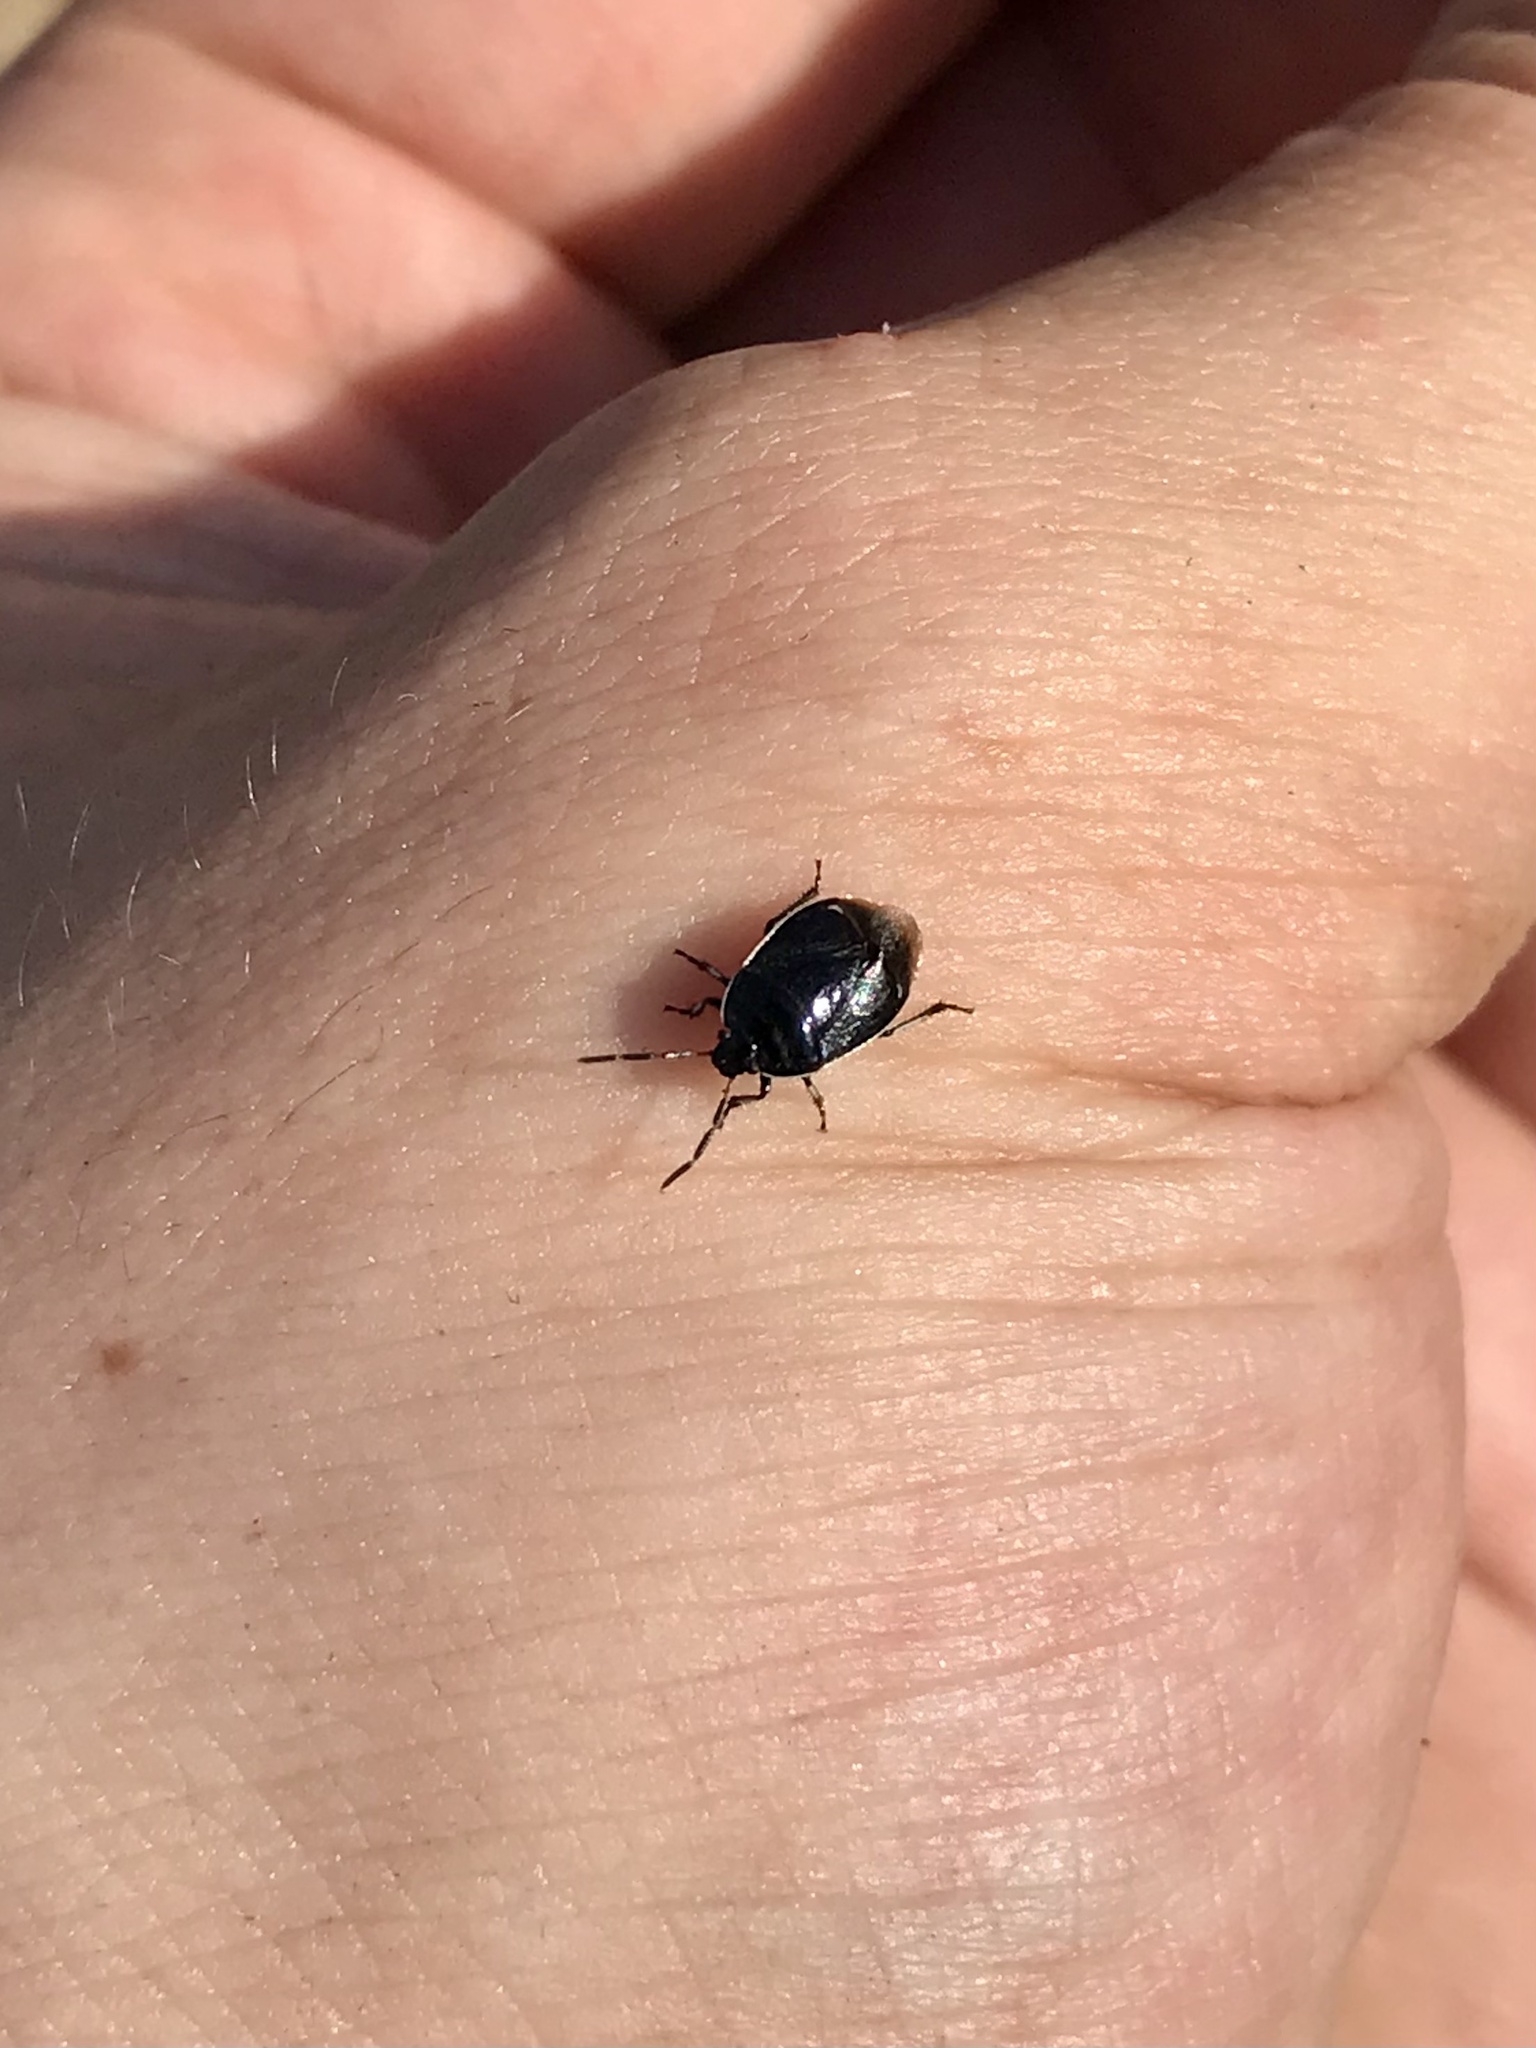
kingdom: Animalia
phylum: Arthropoda
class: Insecta
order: Hemiptera
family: Cydnidae
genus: Sehirus
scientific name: Sehirus cinctus
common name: White-margined burrower bug
